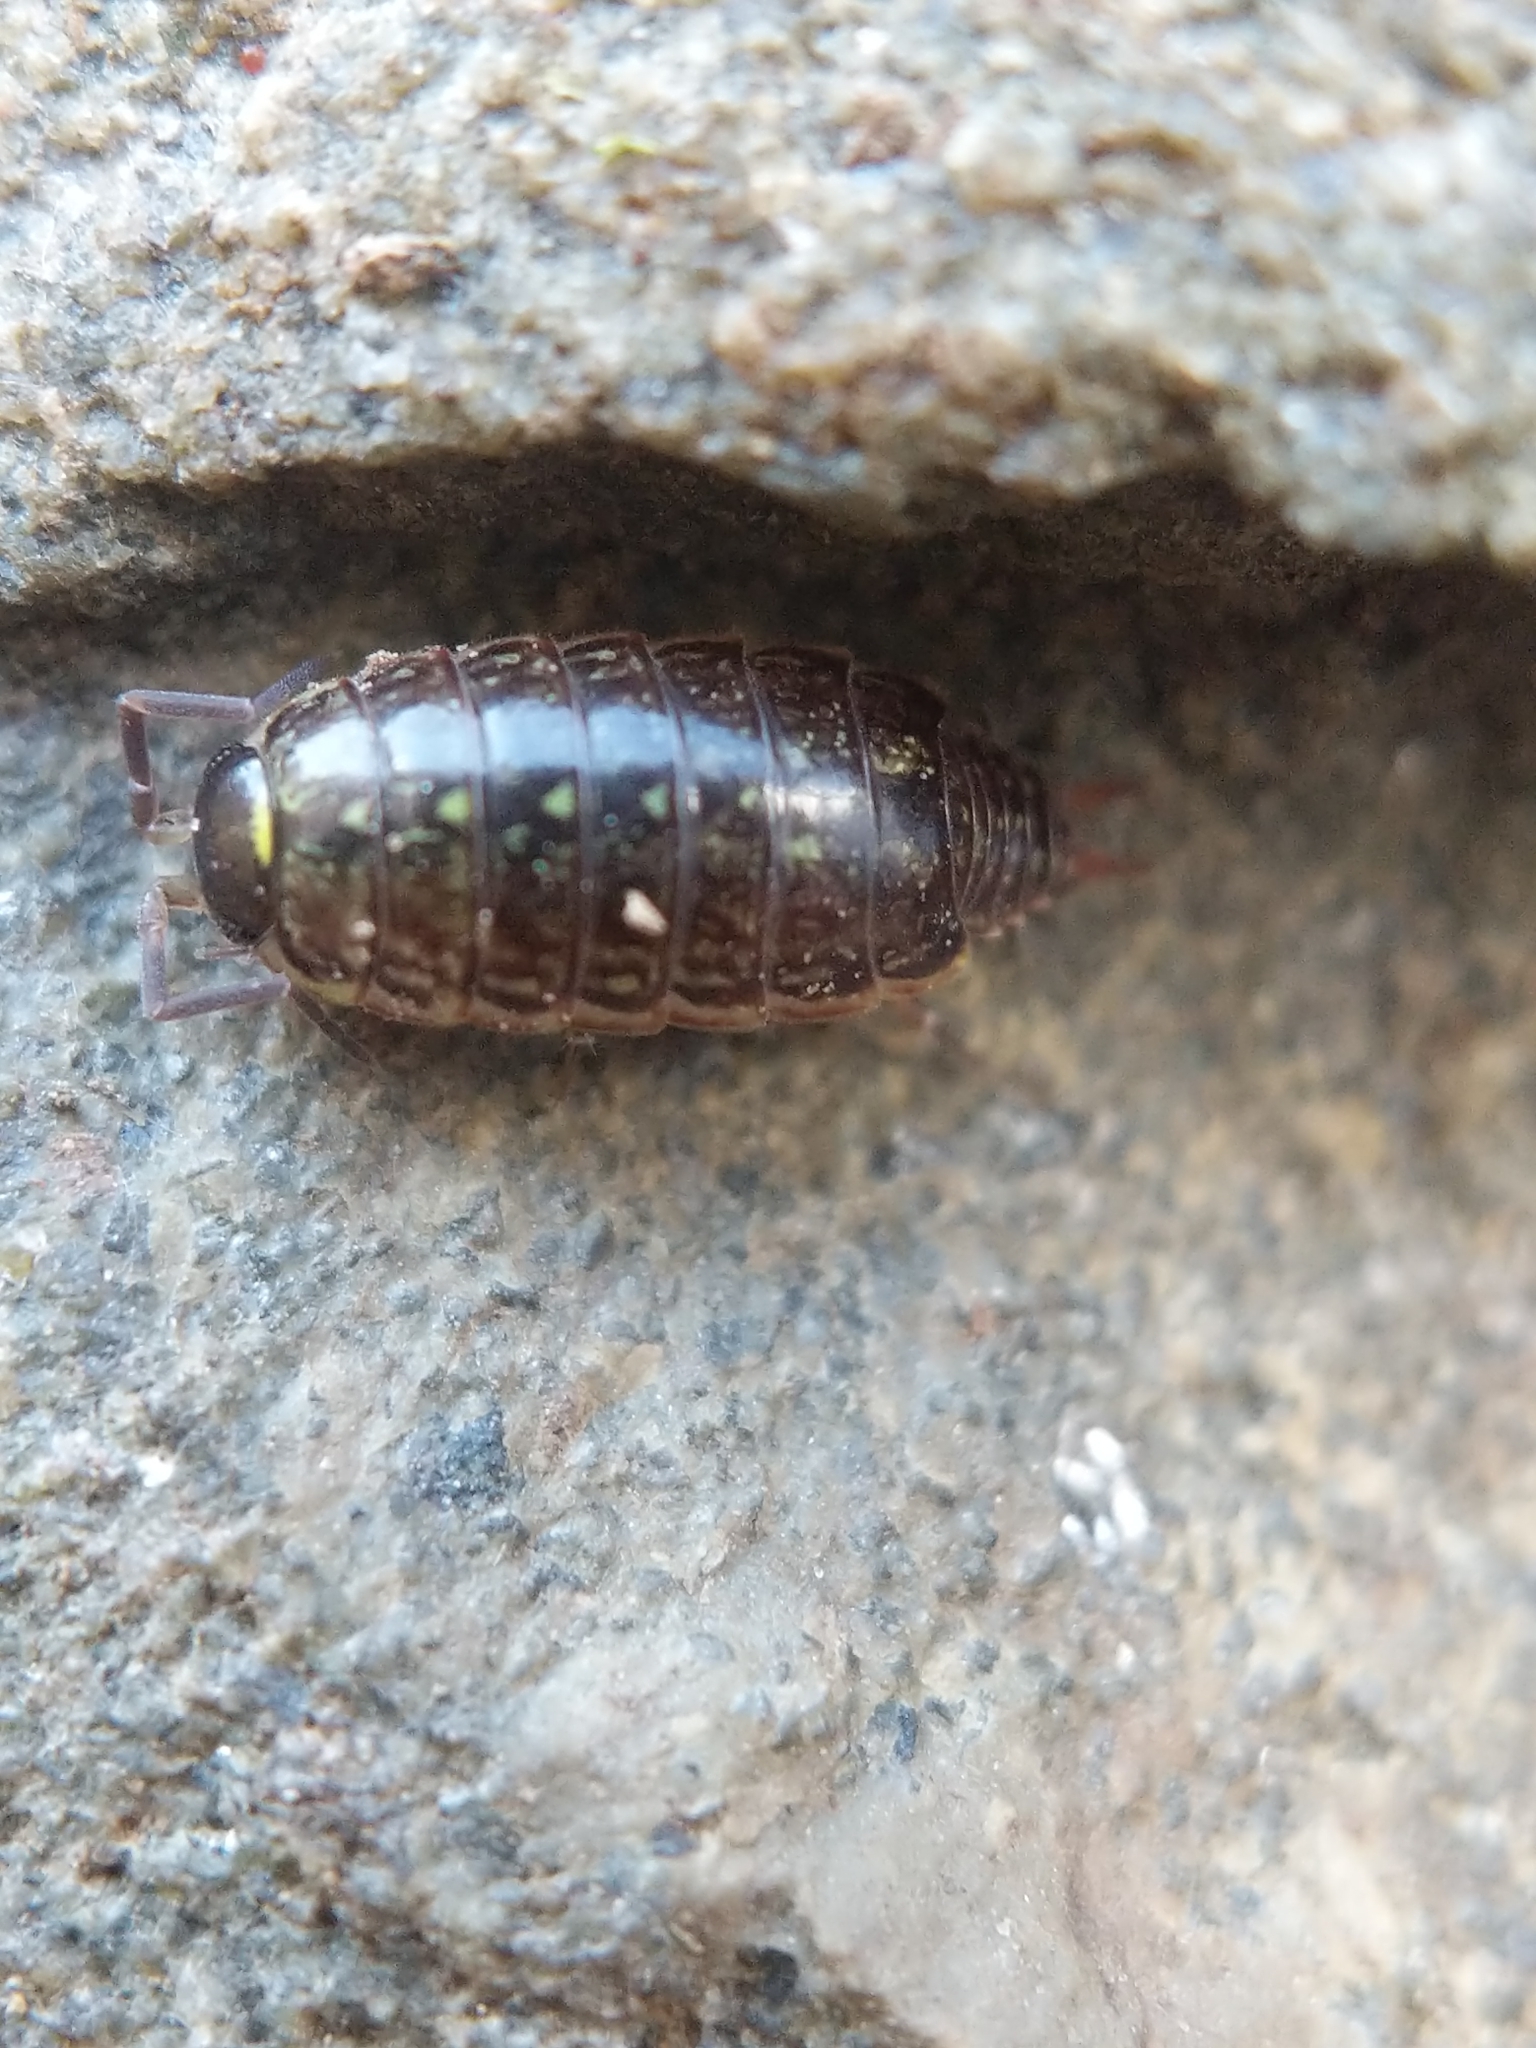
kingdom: Animalia
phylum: Arthropoda
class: Malacostraca
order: Isopoda
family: Philosciidae
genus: Philoscia
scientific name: Philoscia muscorum
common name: Common striped woodlouse
